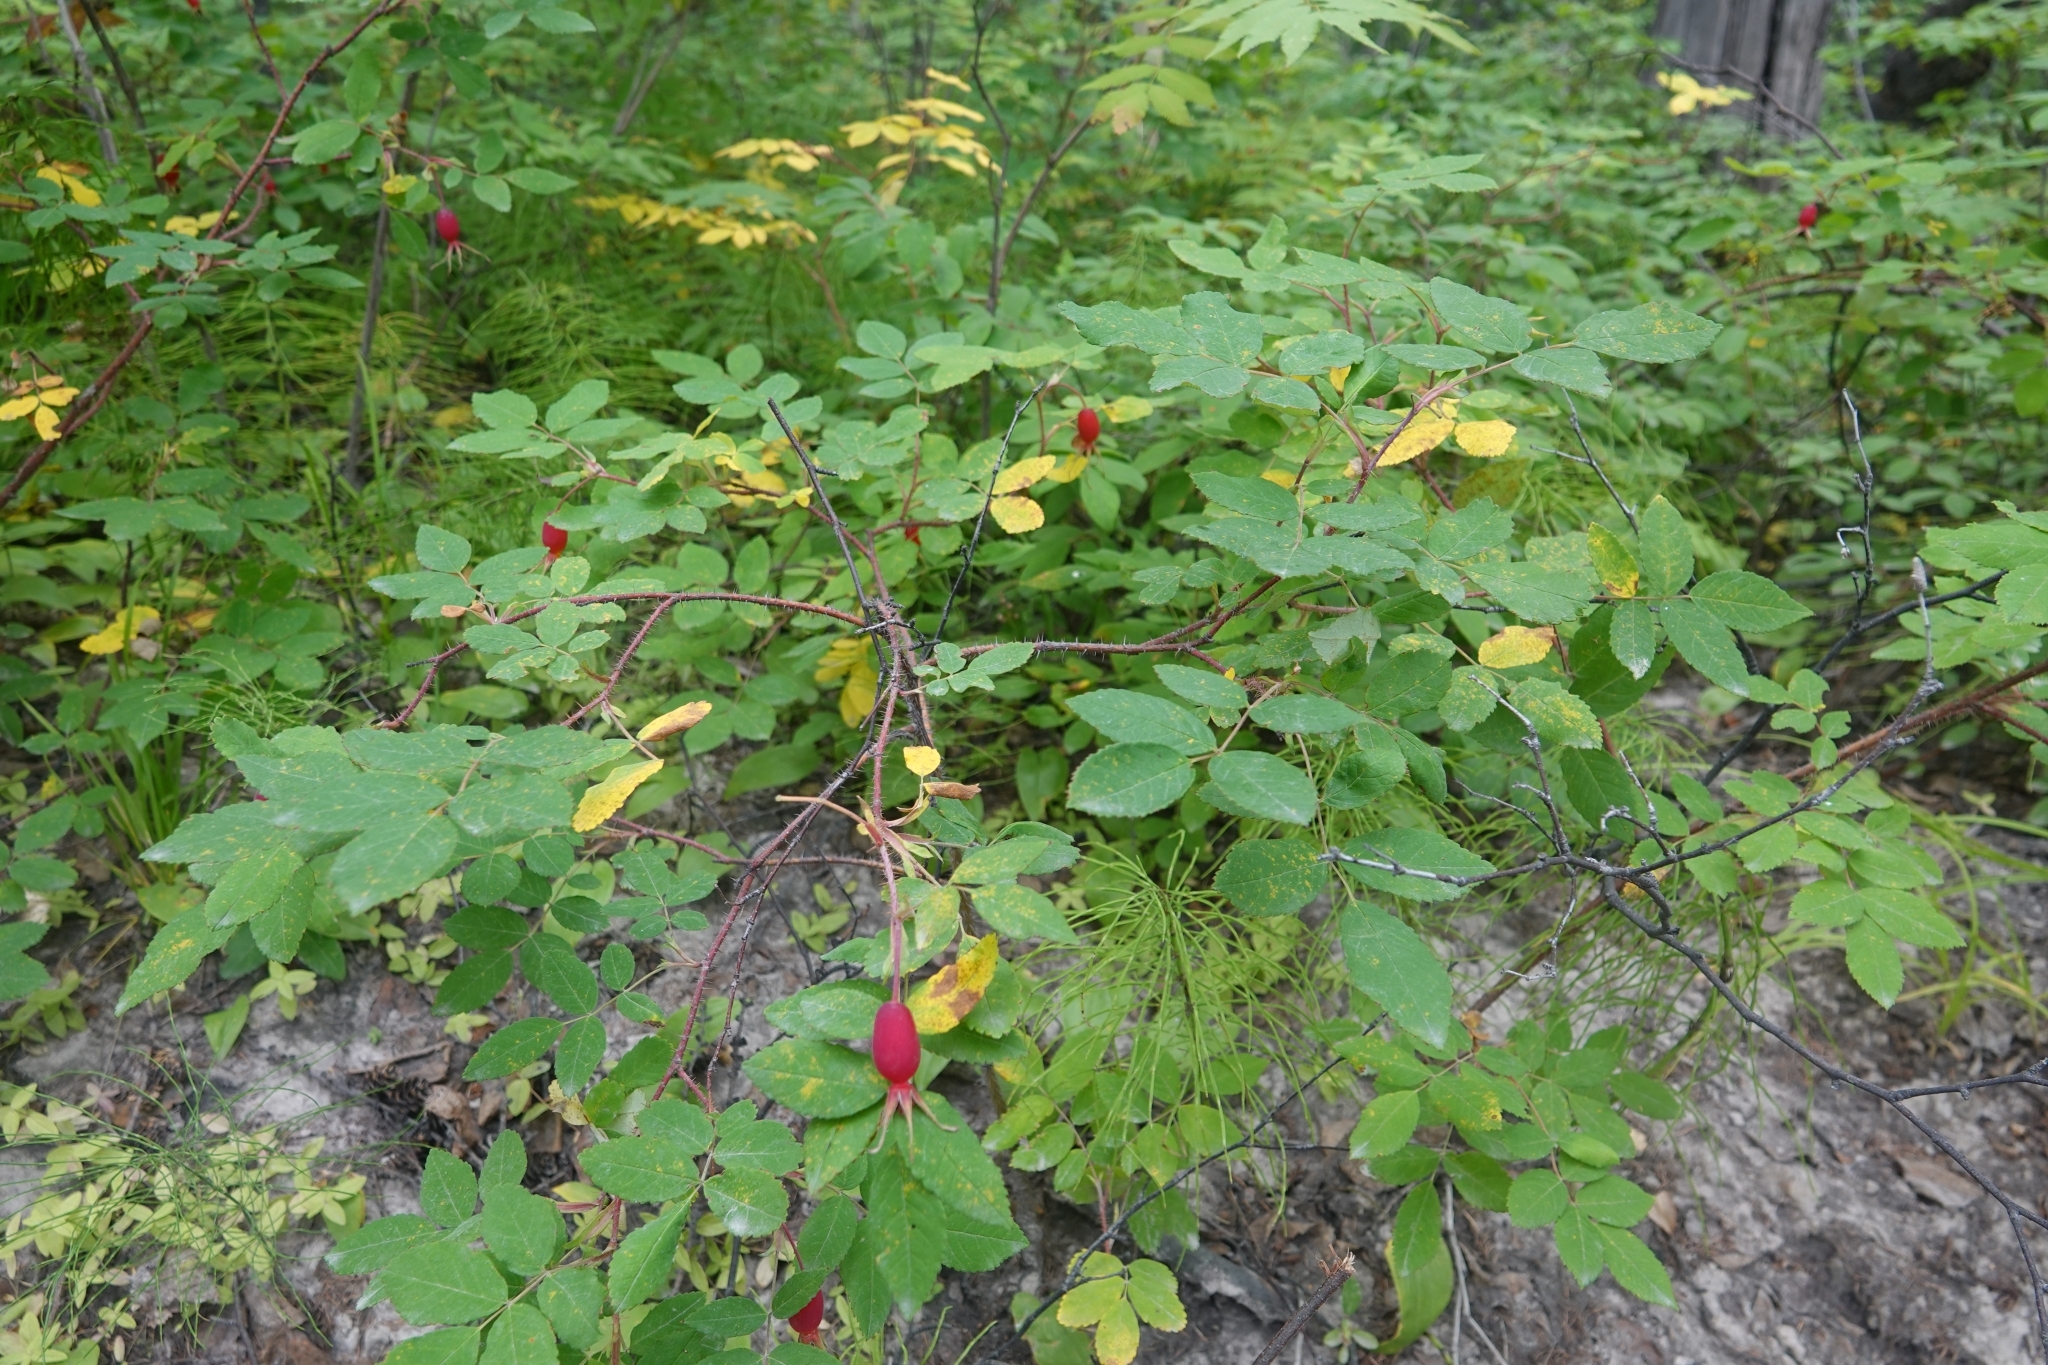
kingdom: Plantae
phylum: Tracheophyta
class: Magnoliopsida
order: Rosales
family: Rosaceae
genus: Rosa
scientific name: Rosa acicularis
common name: Prickly rose
